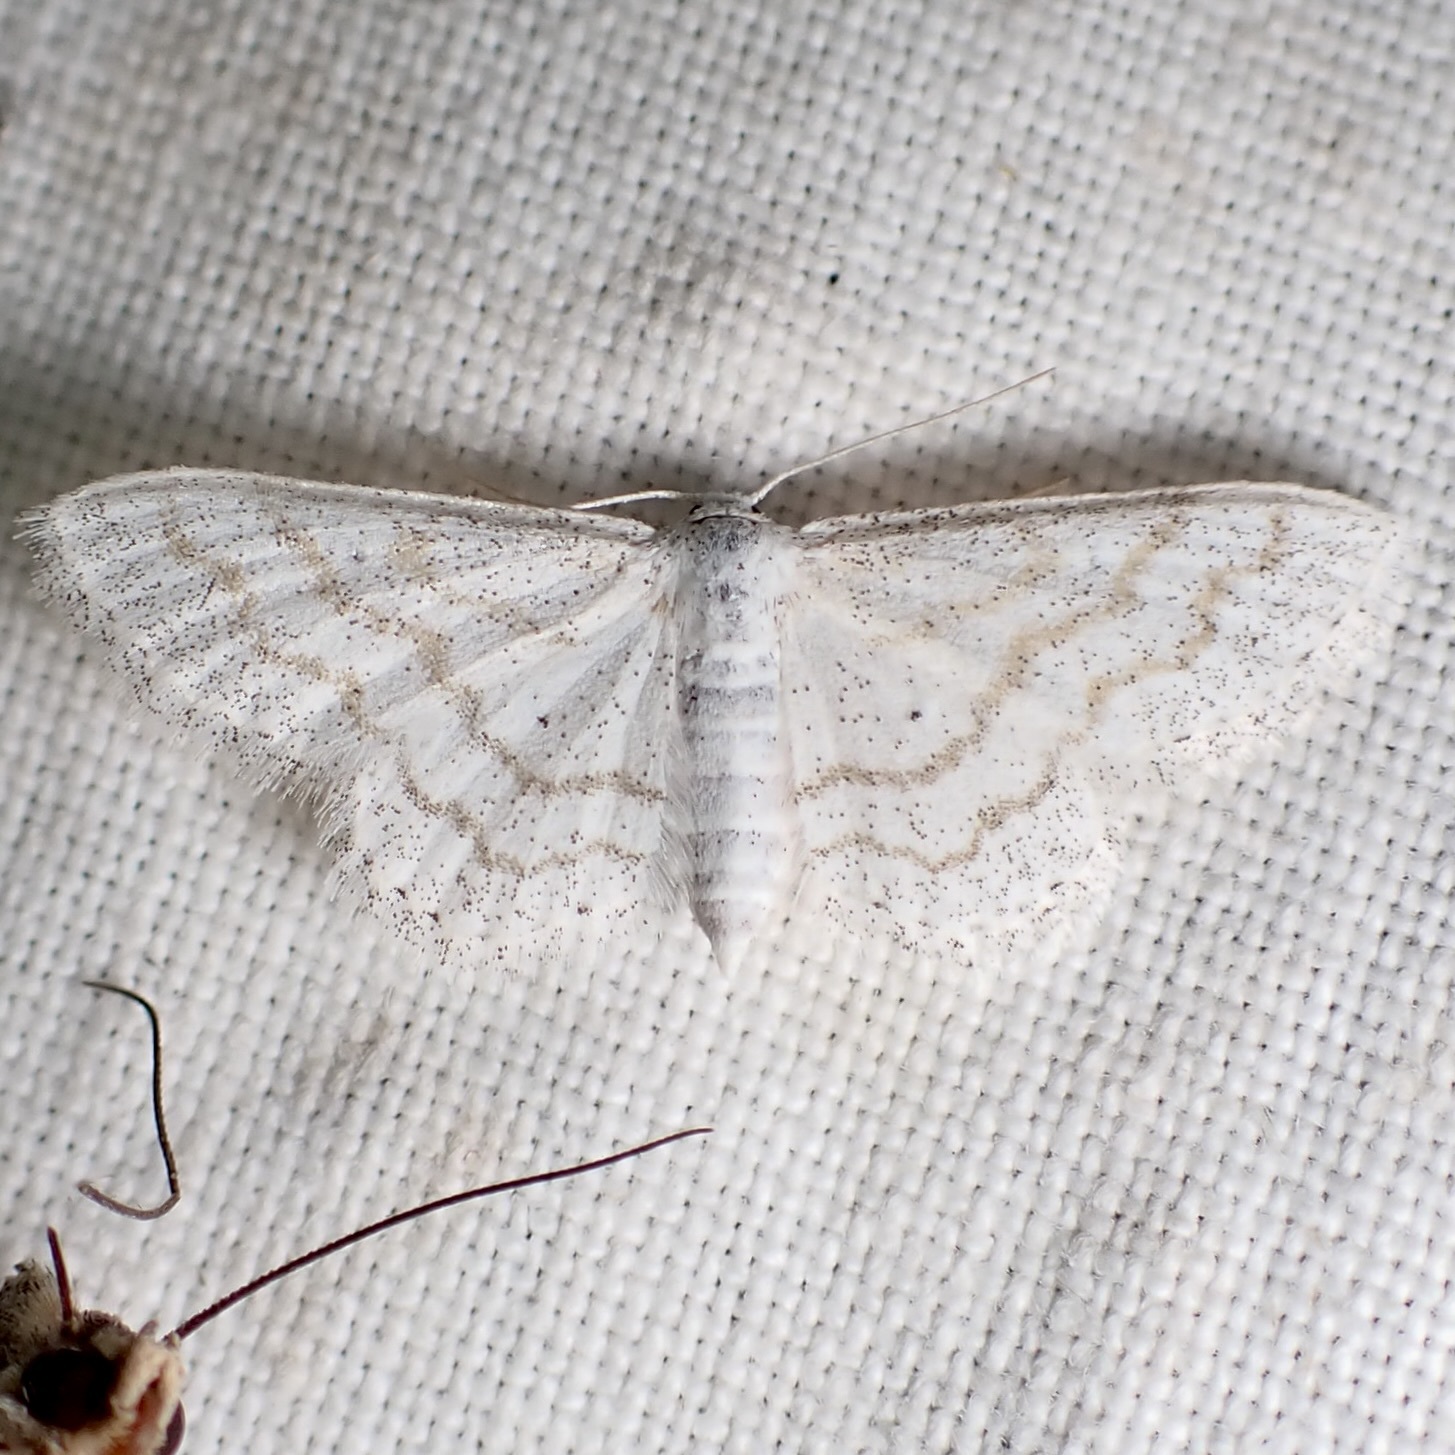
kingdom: Animalia
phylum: Arthropoda
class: Insecta
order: Lepidoptera
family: Geometridae
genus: Lobocleta
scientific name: Lobocleta peralbata
